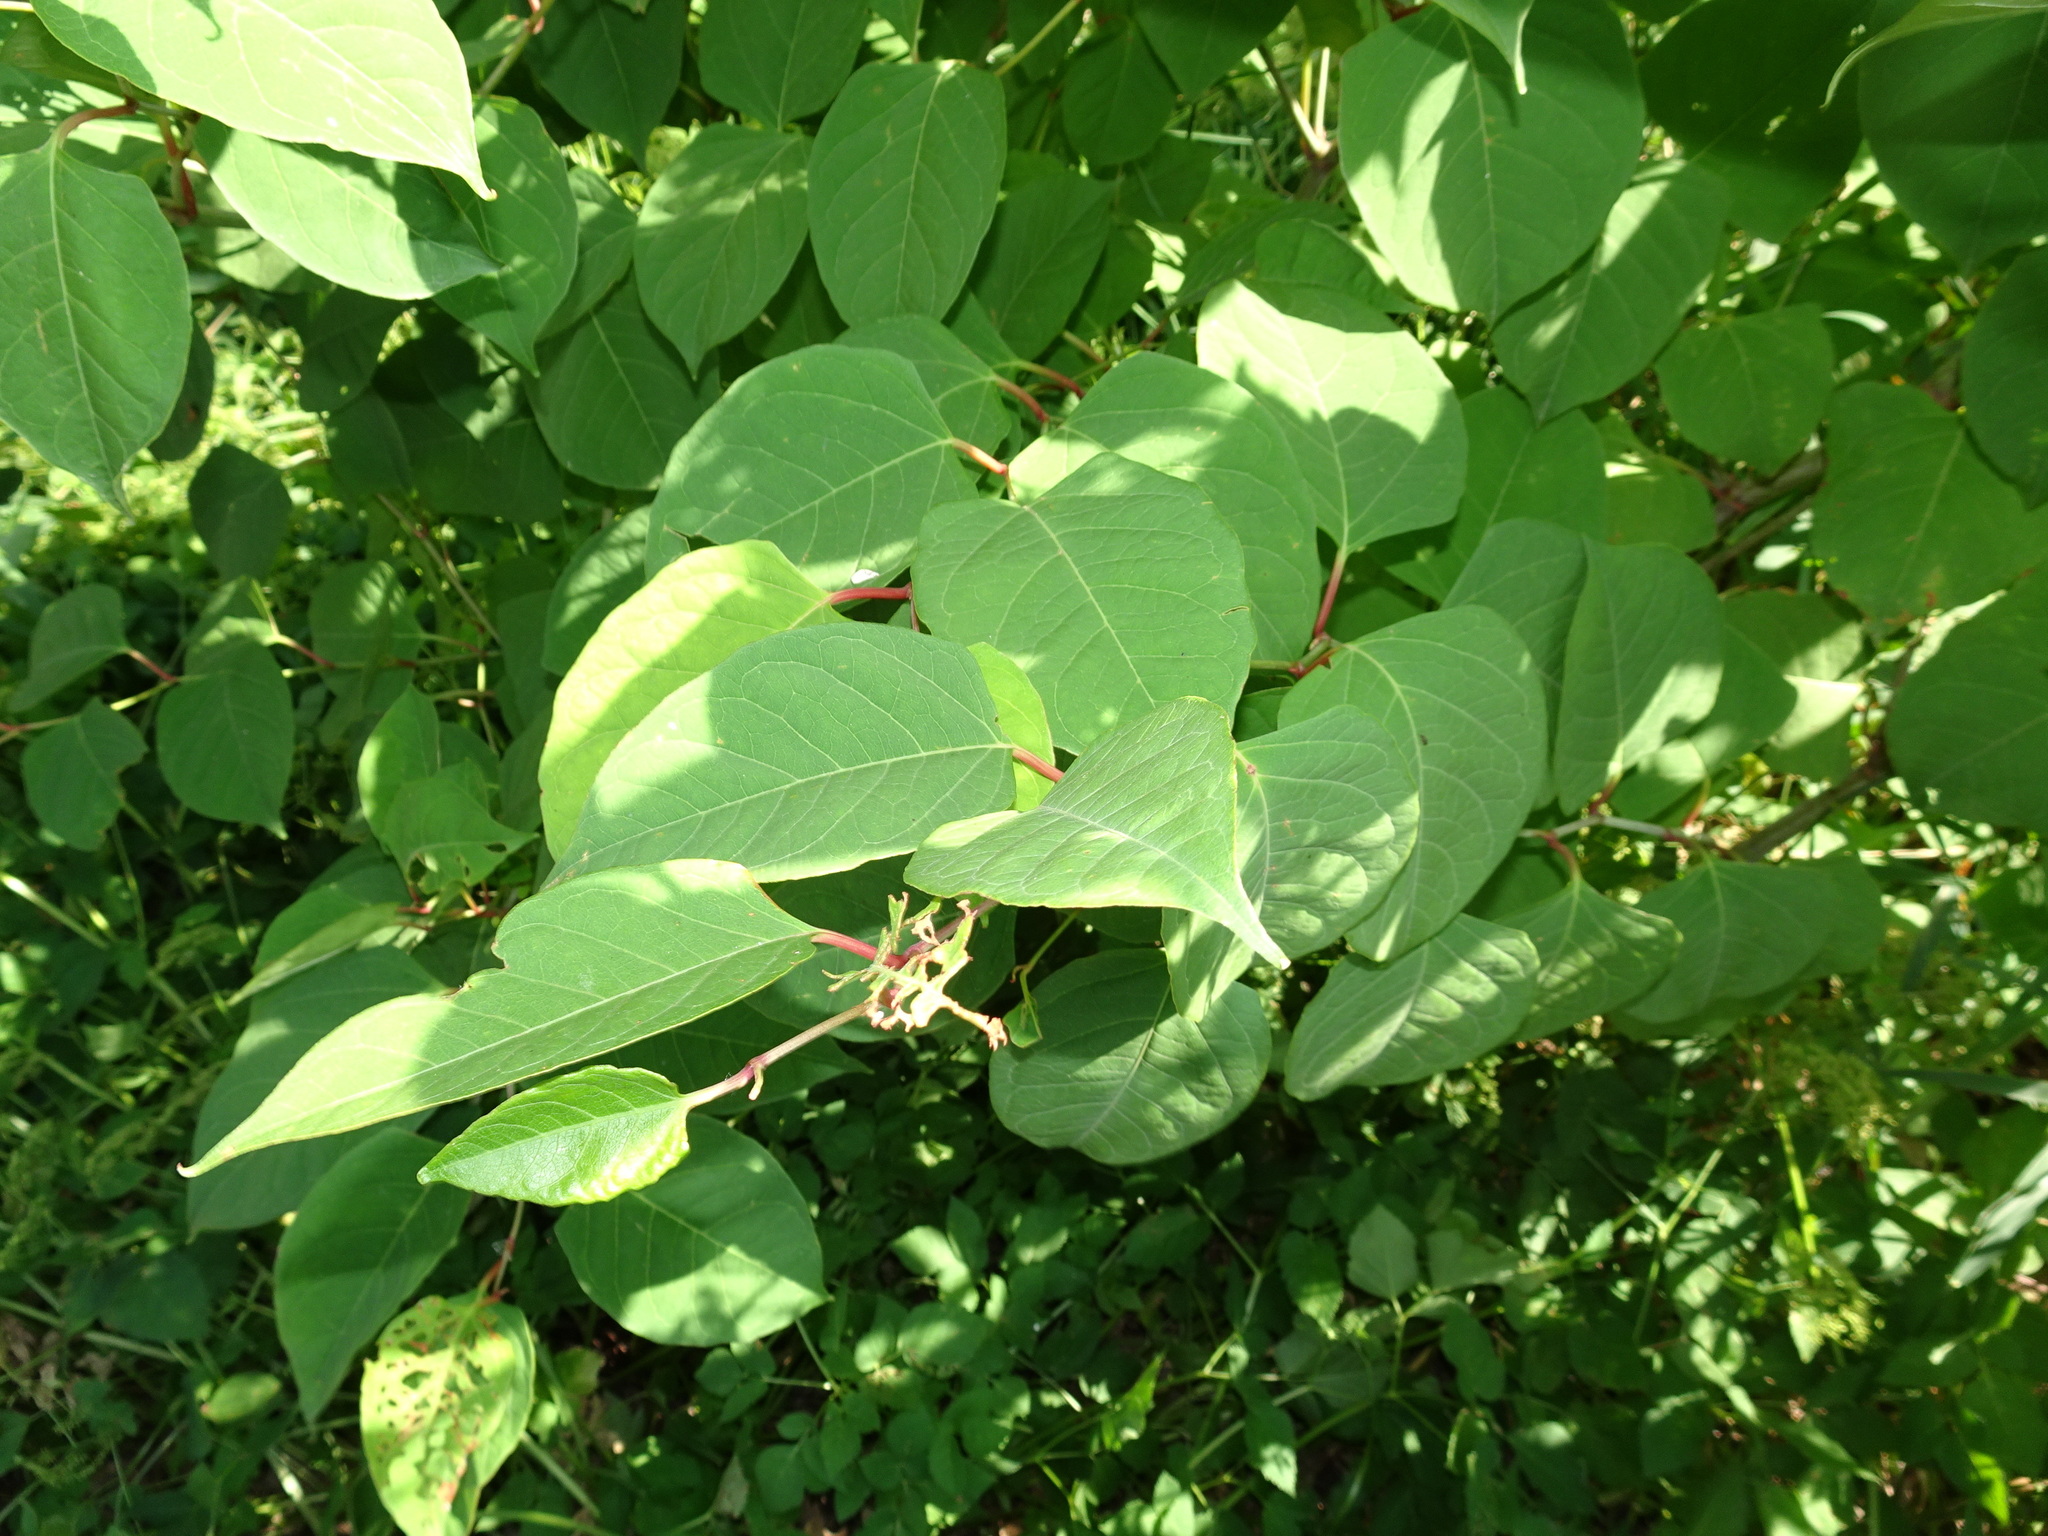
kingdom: Plantae
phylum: Tracheophyta
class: Magnoliopsida
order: Caryophyllales
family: Polygonaceae
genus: Reynoutria
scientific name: Reynoutria japonica
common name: Japanese knotweed
